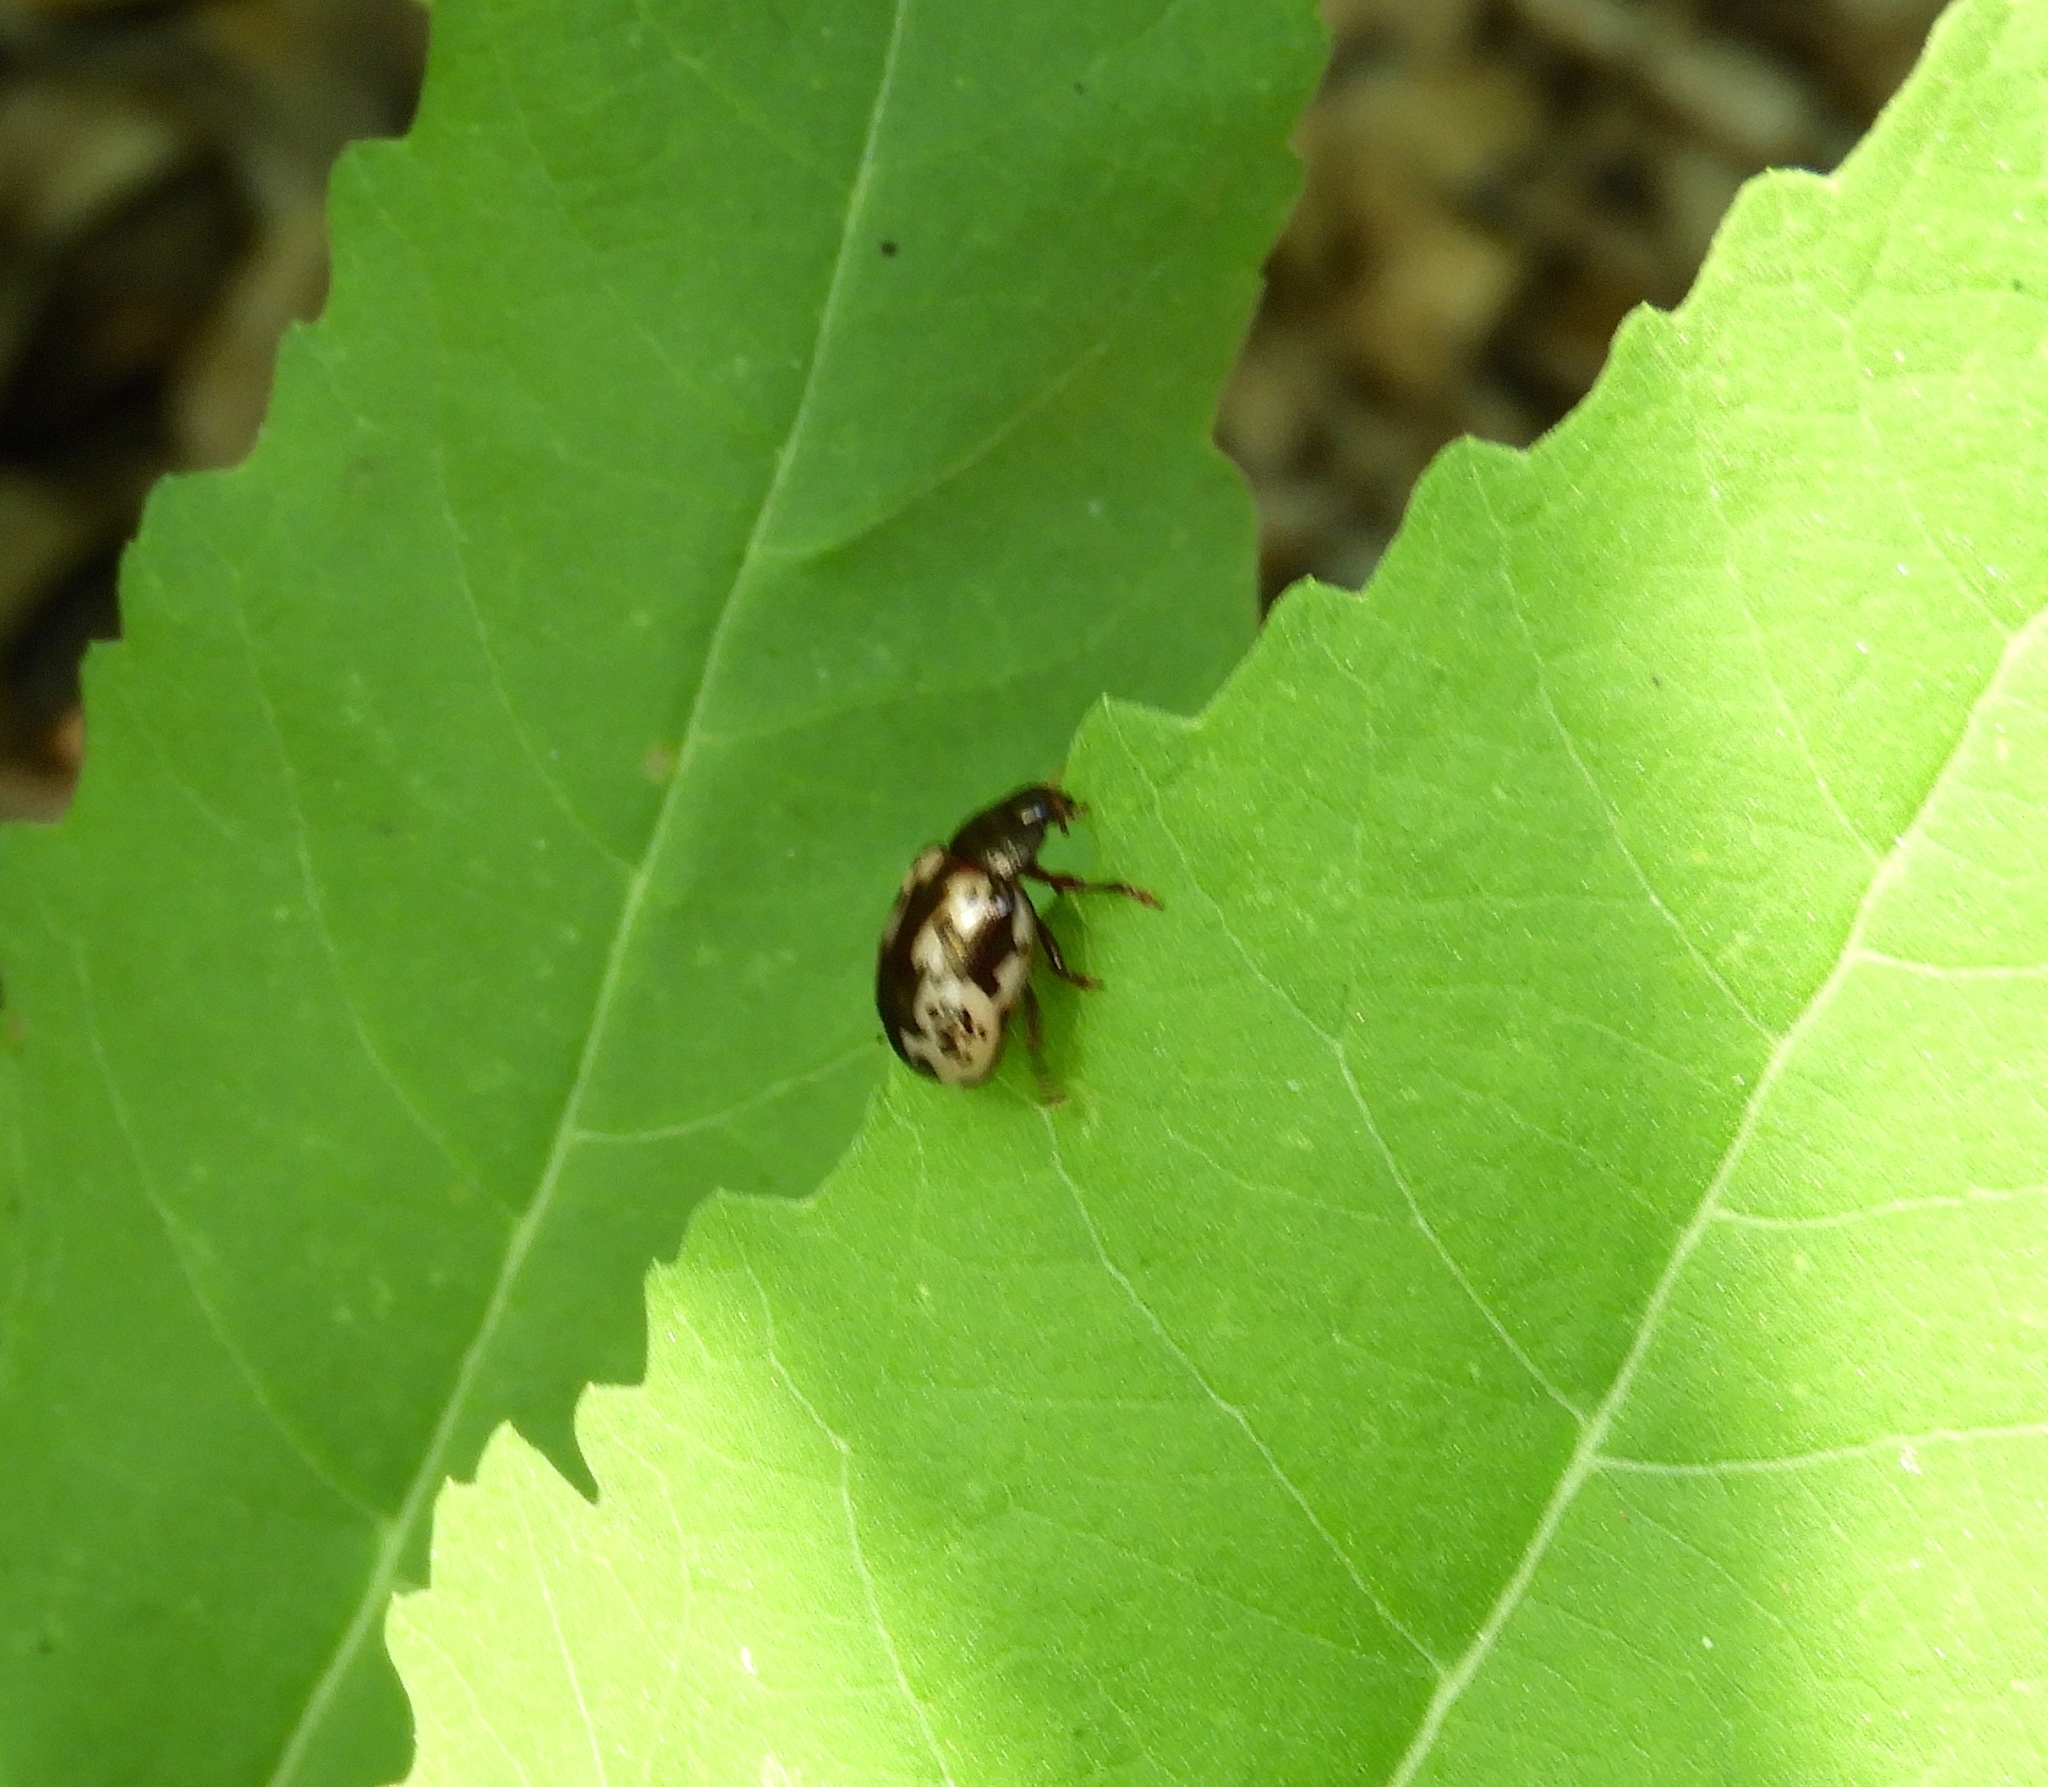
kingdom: Animalia
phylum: Arthropoda
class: Insecta
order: Coleoptera
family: Chrysomelidae
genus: Calligrapha
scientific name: Calligrapha intermedia
